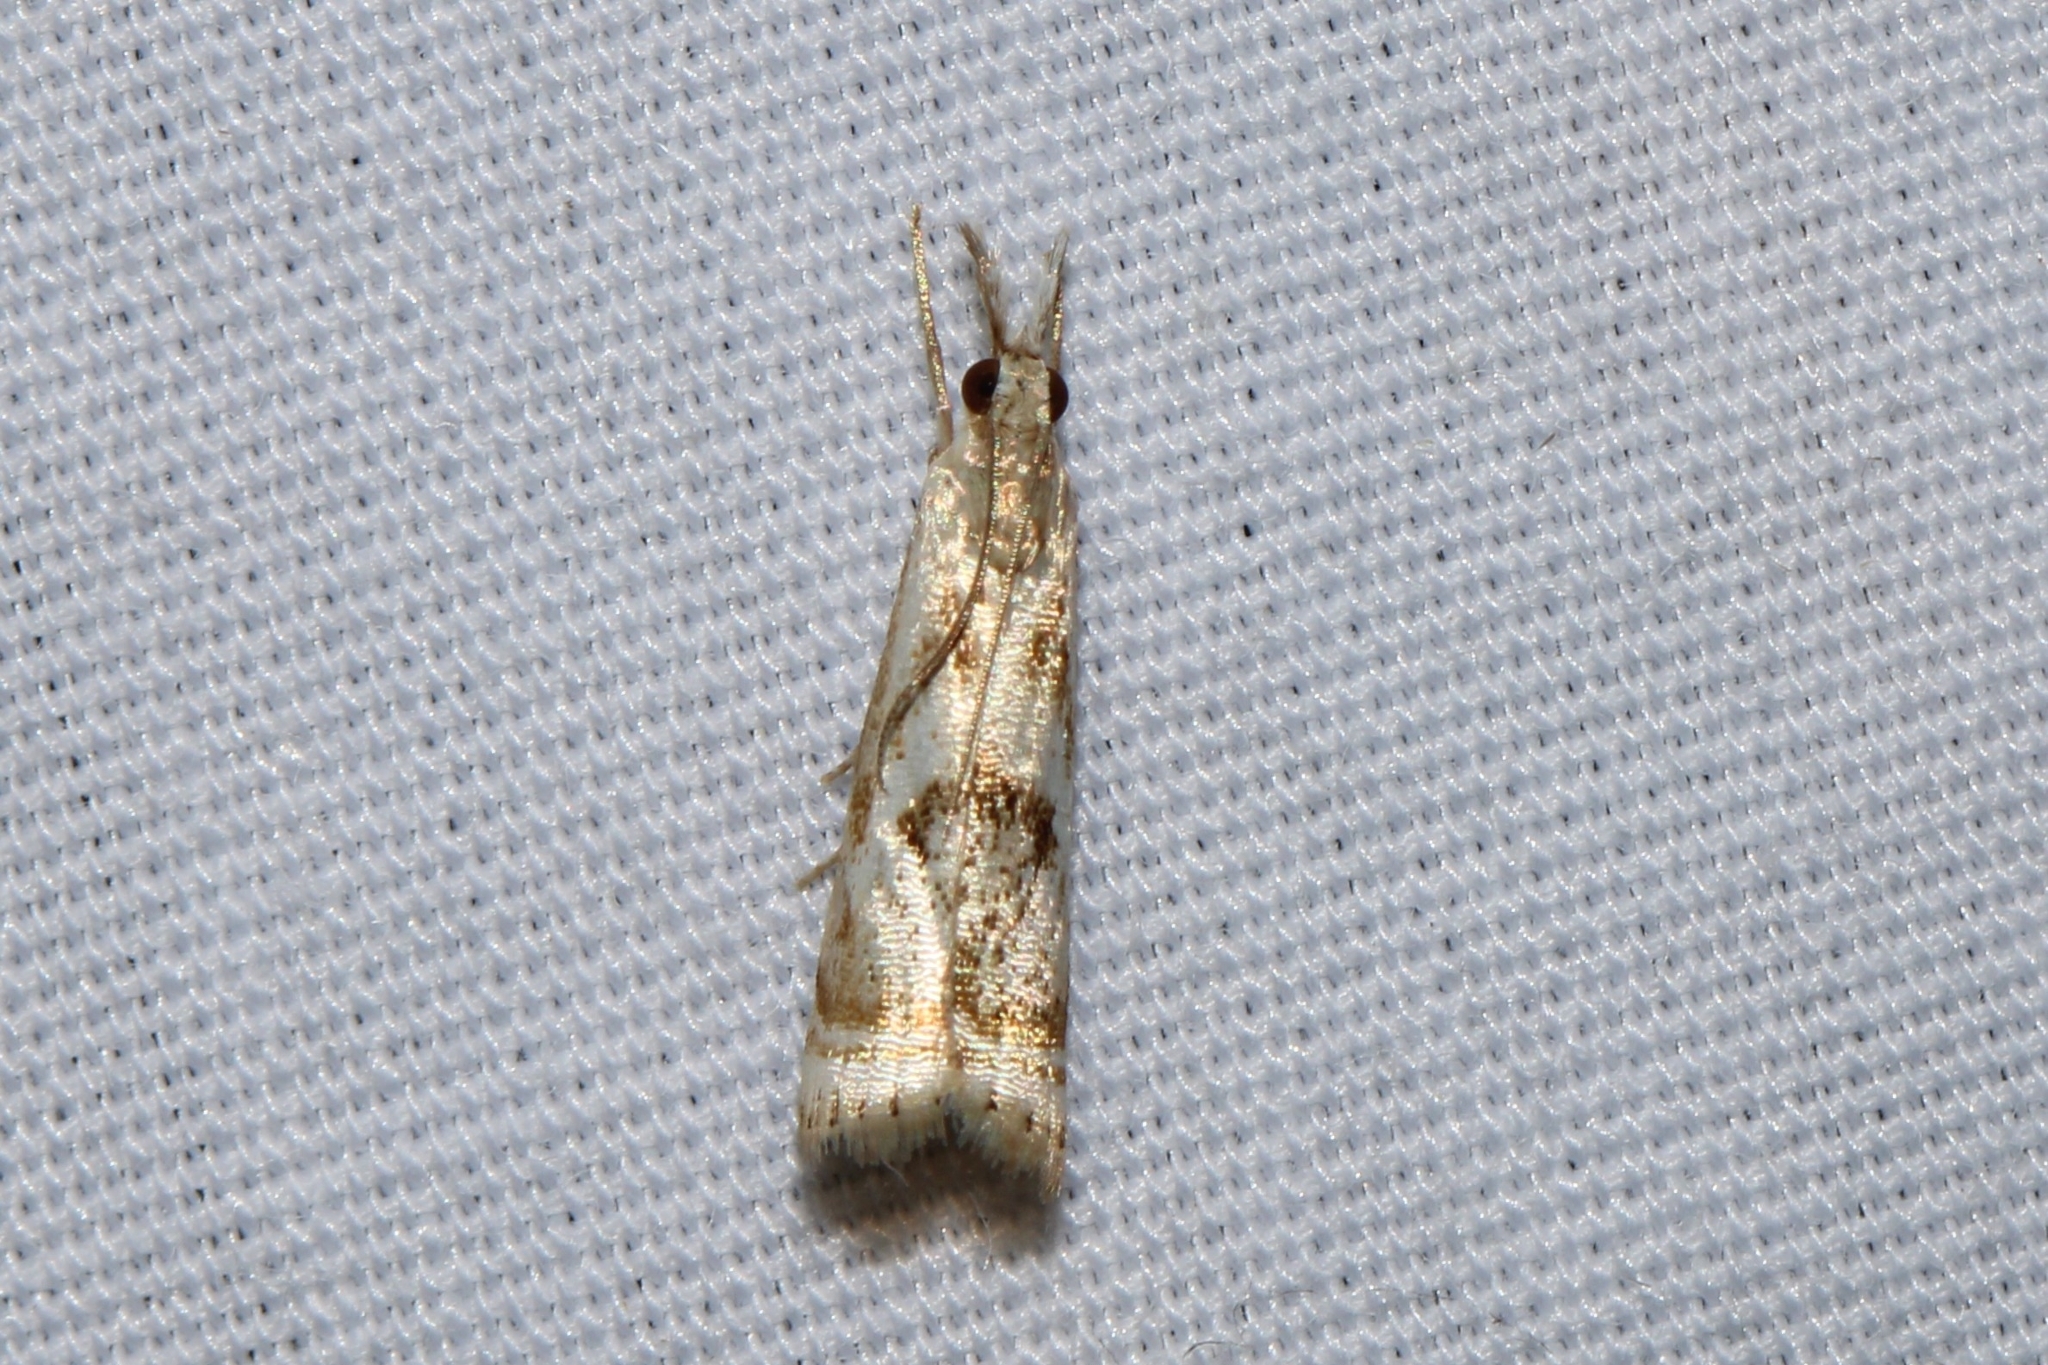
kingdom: Animalia
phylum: Arthropoda
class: Insecta
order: Lepidoptera
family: Crambidae
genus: Microcrambus
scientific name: Microcrambus elegans
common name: Elegant grass-veneer
